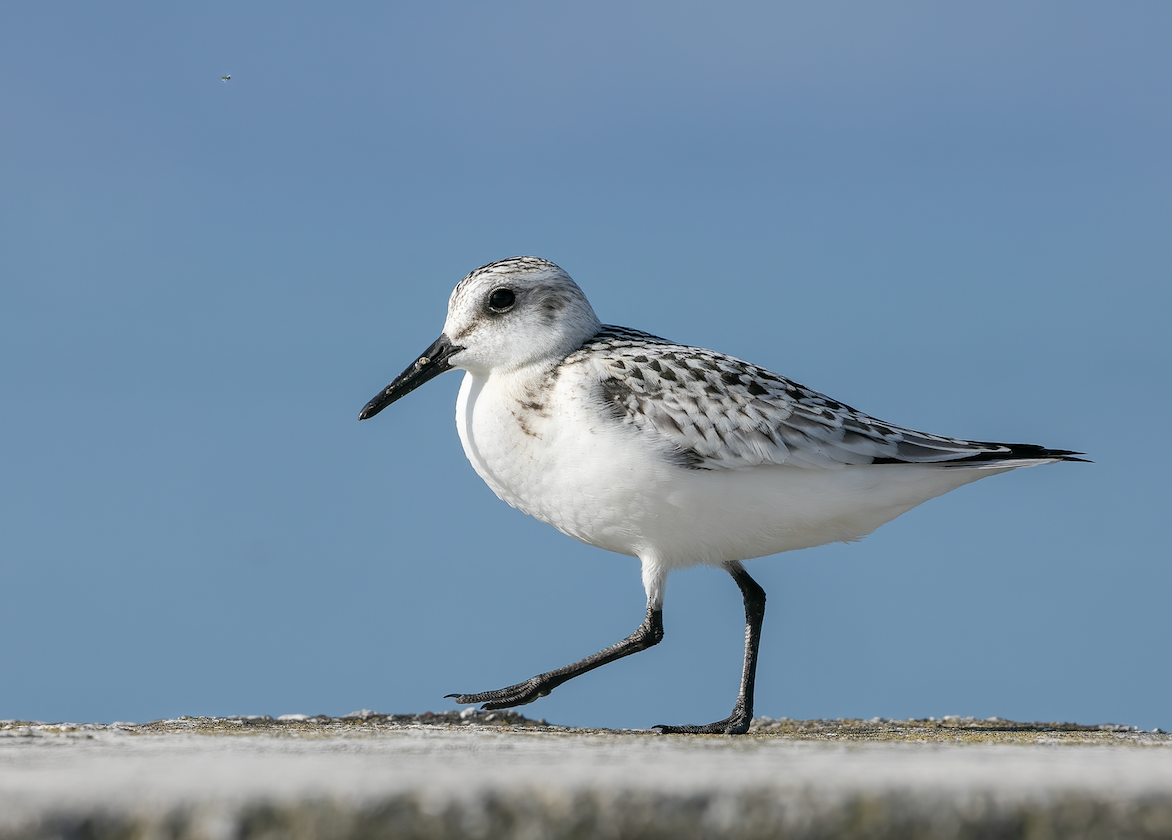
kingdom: Animalia
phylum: Chordata
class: Aves
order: Charadriiformes
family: Scolopacidae
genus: Calidris
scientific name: Calidris alba
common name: Sanderling
